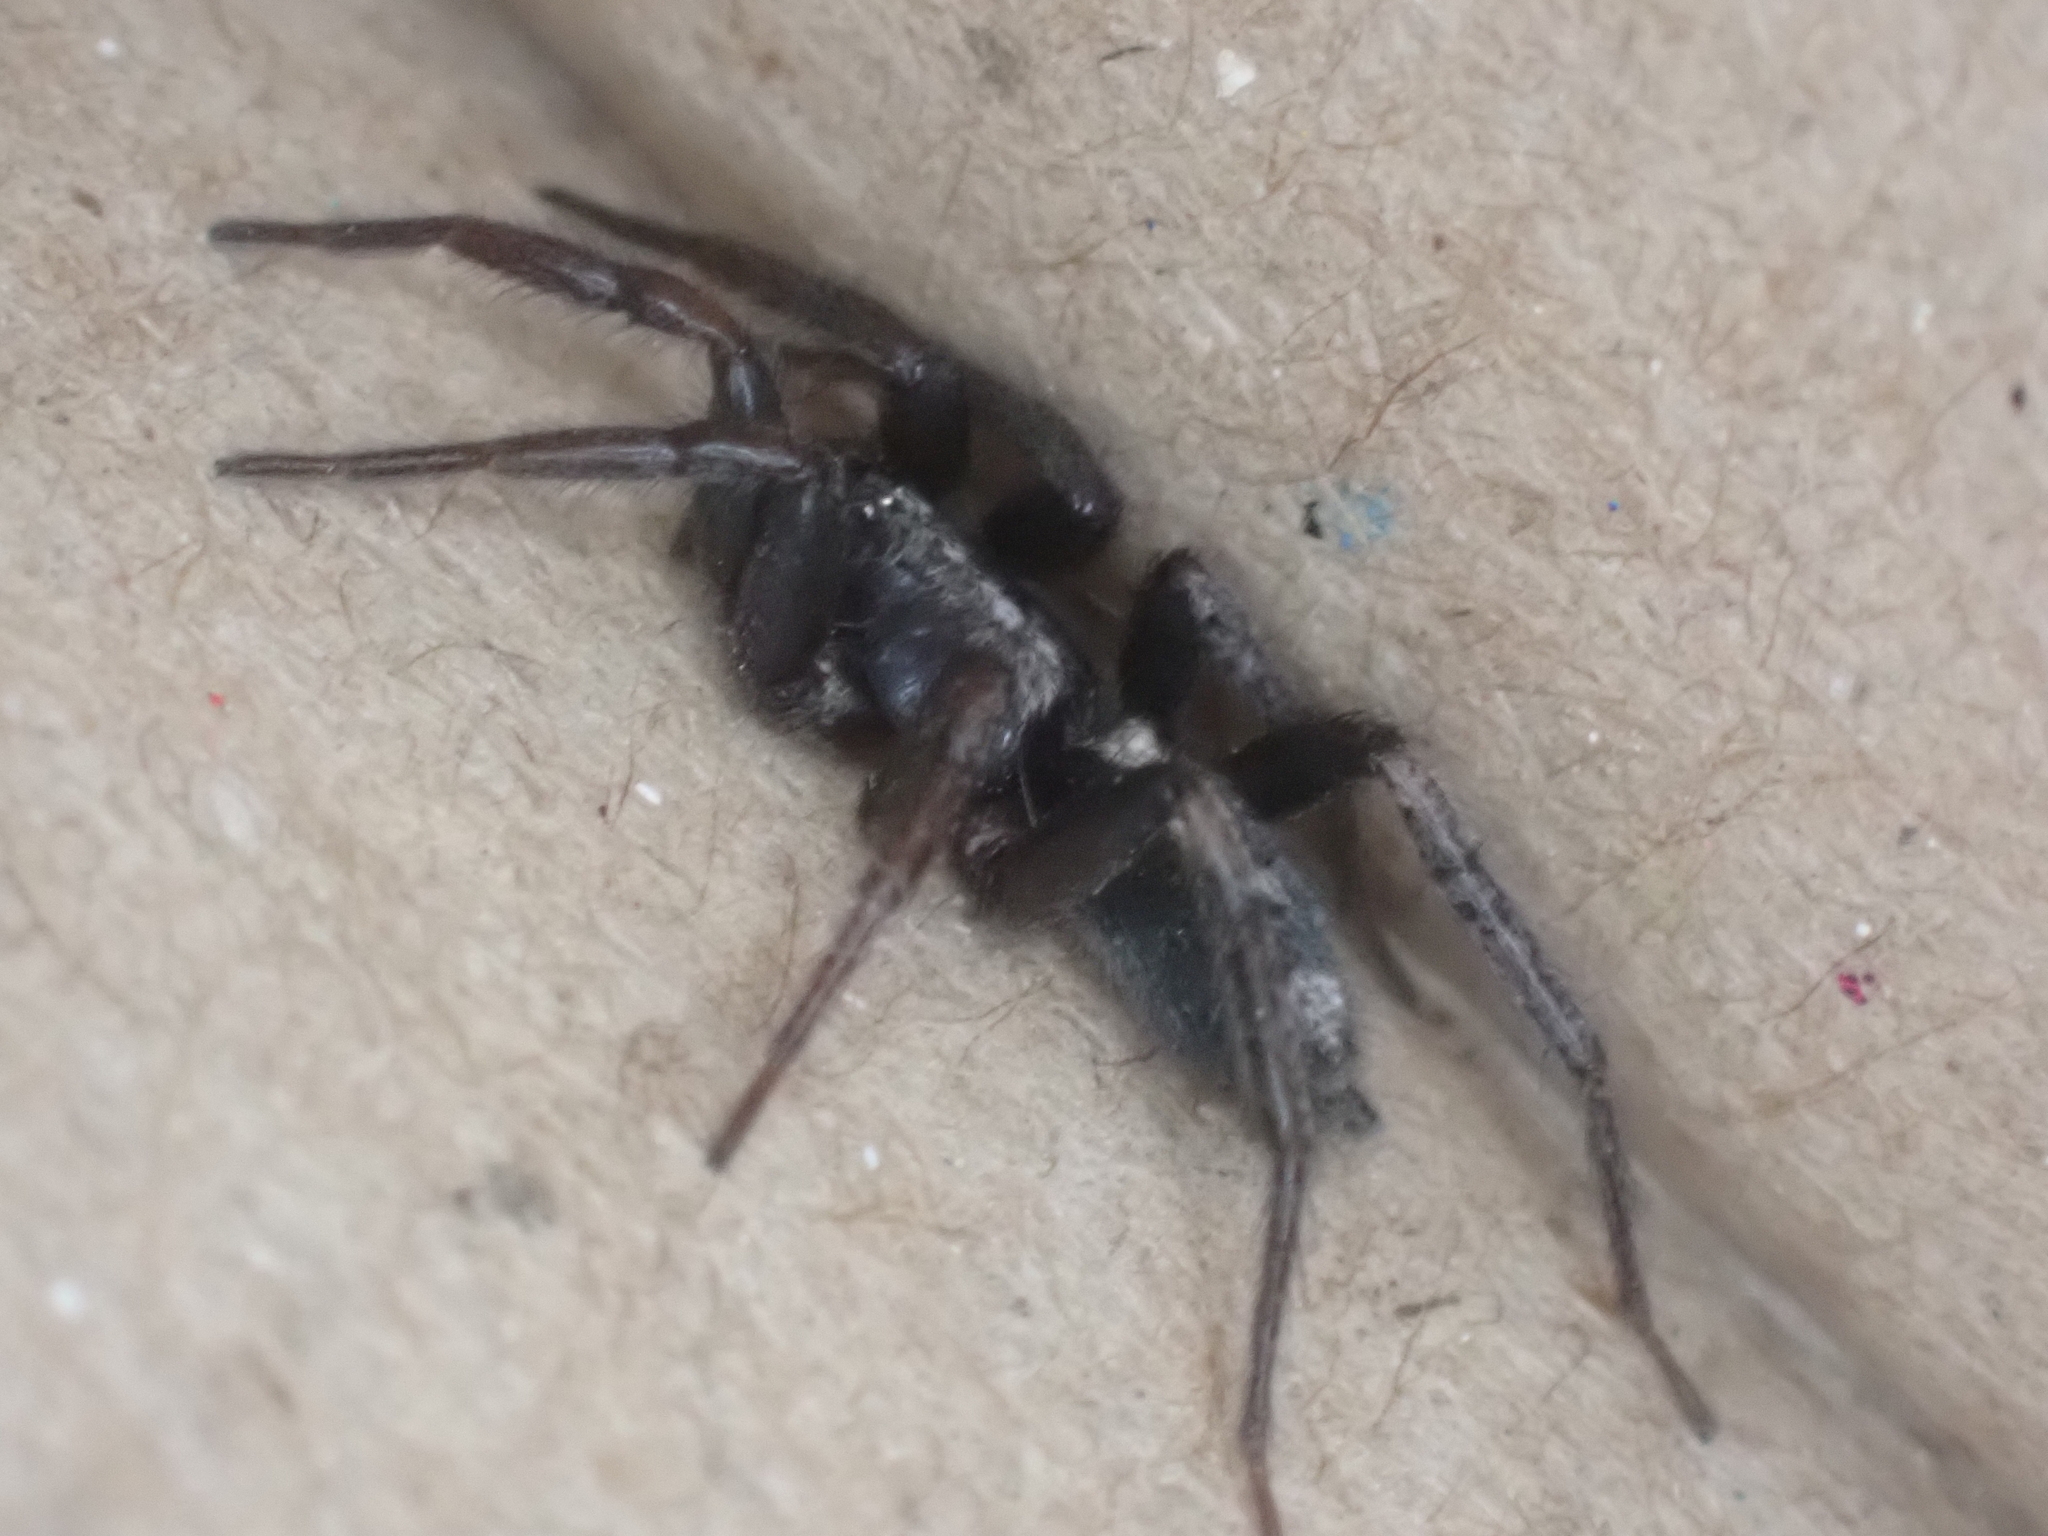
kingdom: Animalia
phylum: Arthropoda
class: Arachnida
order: Araneae
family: Gnaphosidae
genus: Herpyllus
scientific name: Herpyllus ecclesiasticus
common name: Eastern parson spider
